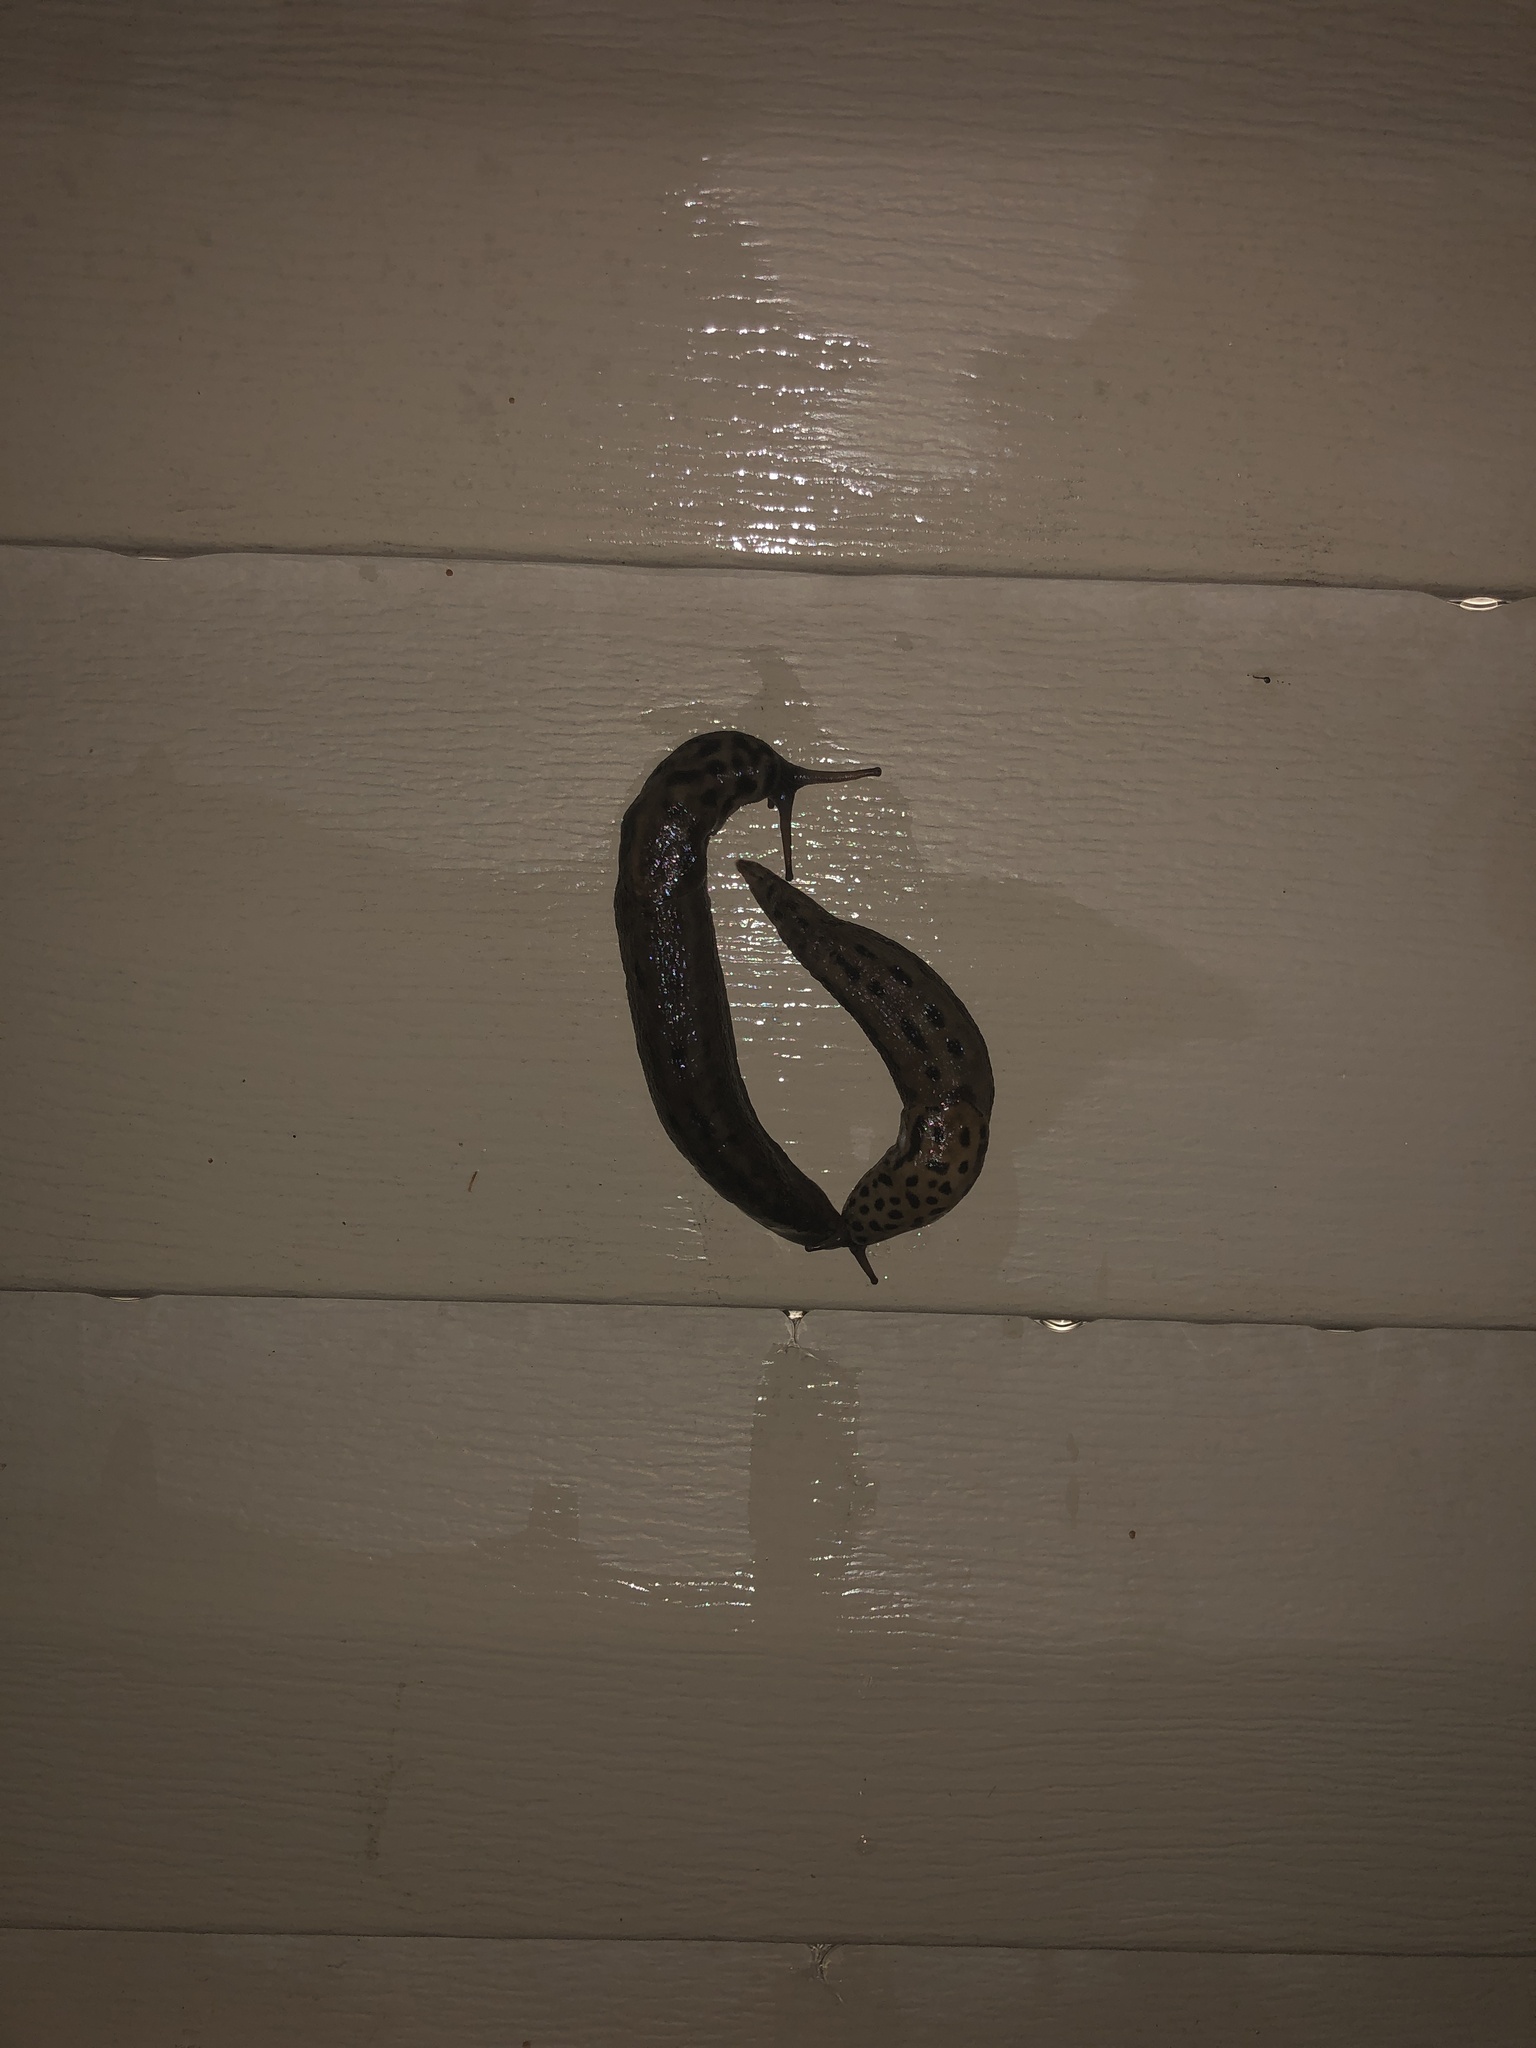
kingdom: Animalia
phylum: Mollusca
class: Gastropoda
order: Stylommatophora
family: Limacidae
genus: Limax
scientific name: Limax maximus
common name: Great grey slug
